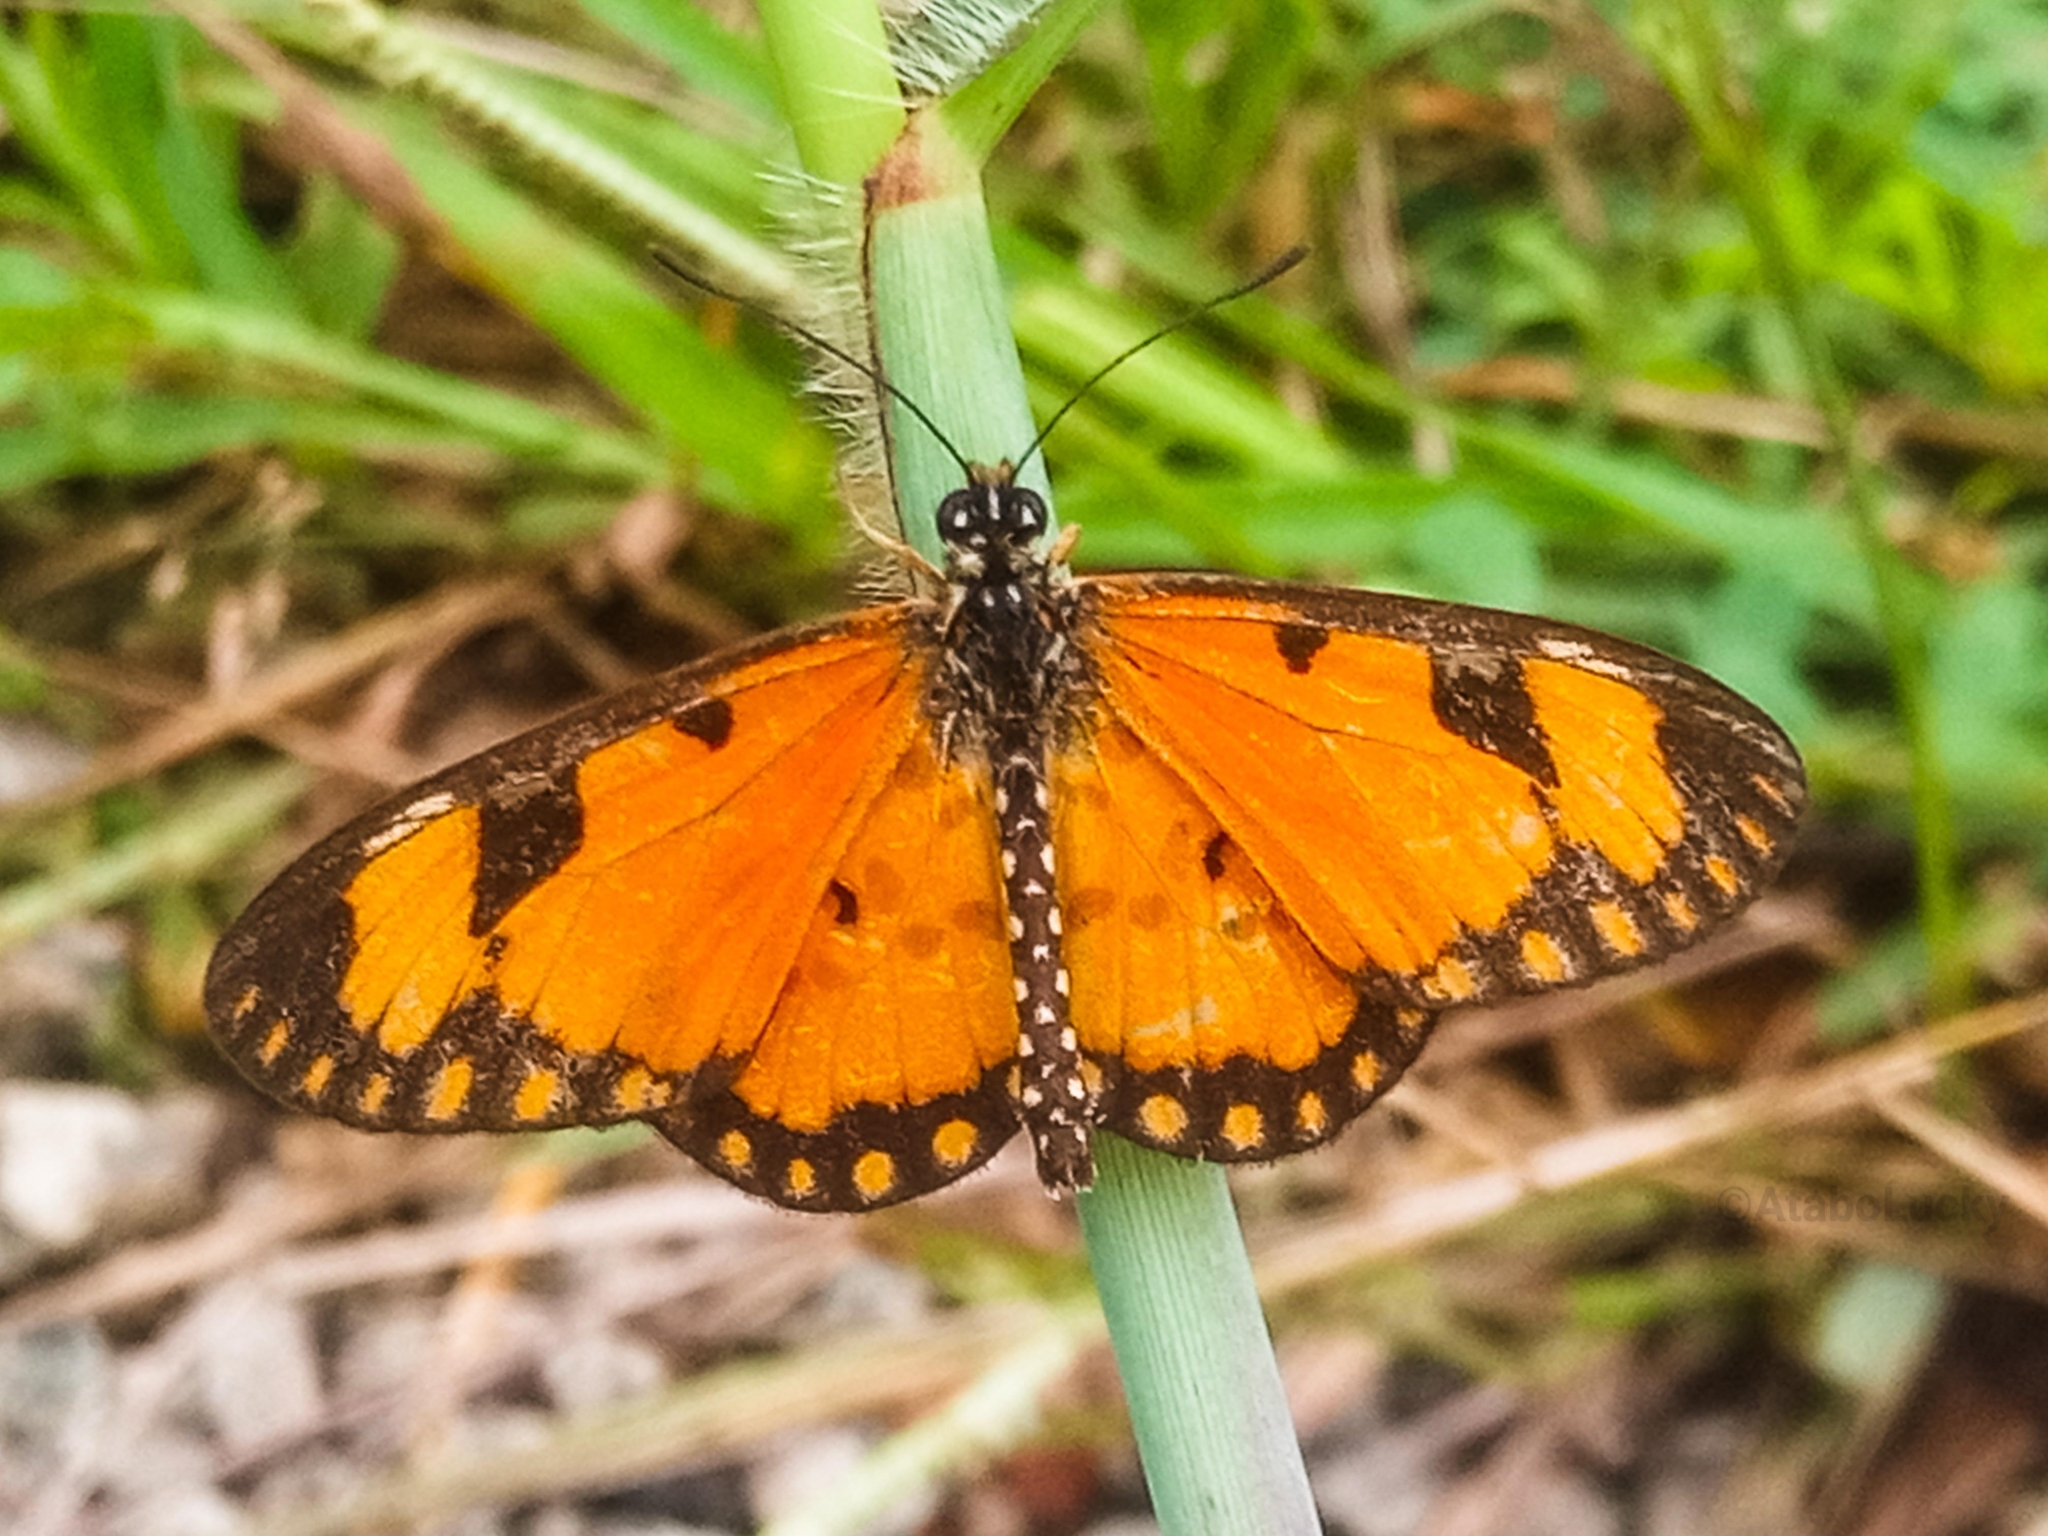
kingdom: Animalia
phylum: Arthropoda
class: Insecta
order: Lepidoptera
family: Nymphalidae
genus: Acraea
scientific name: Acraea Telchinia serena
